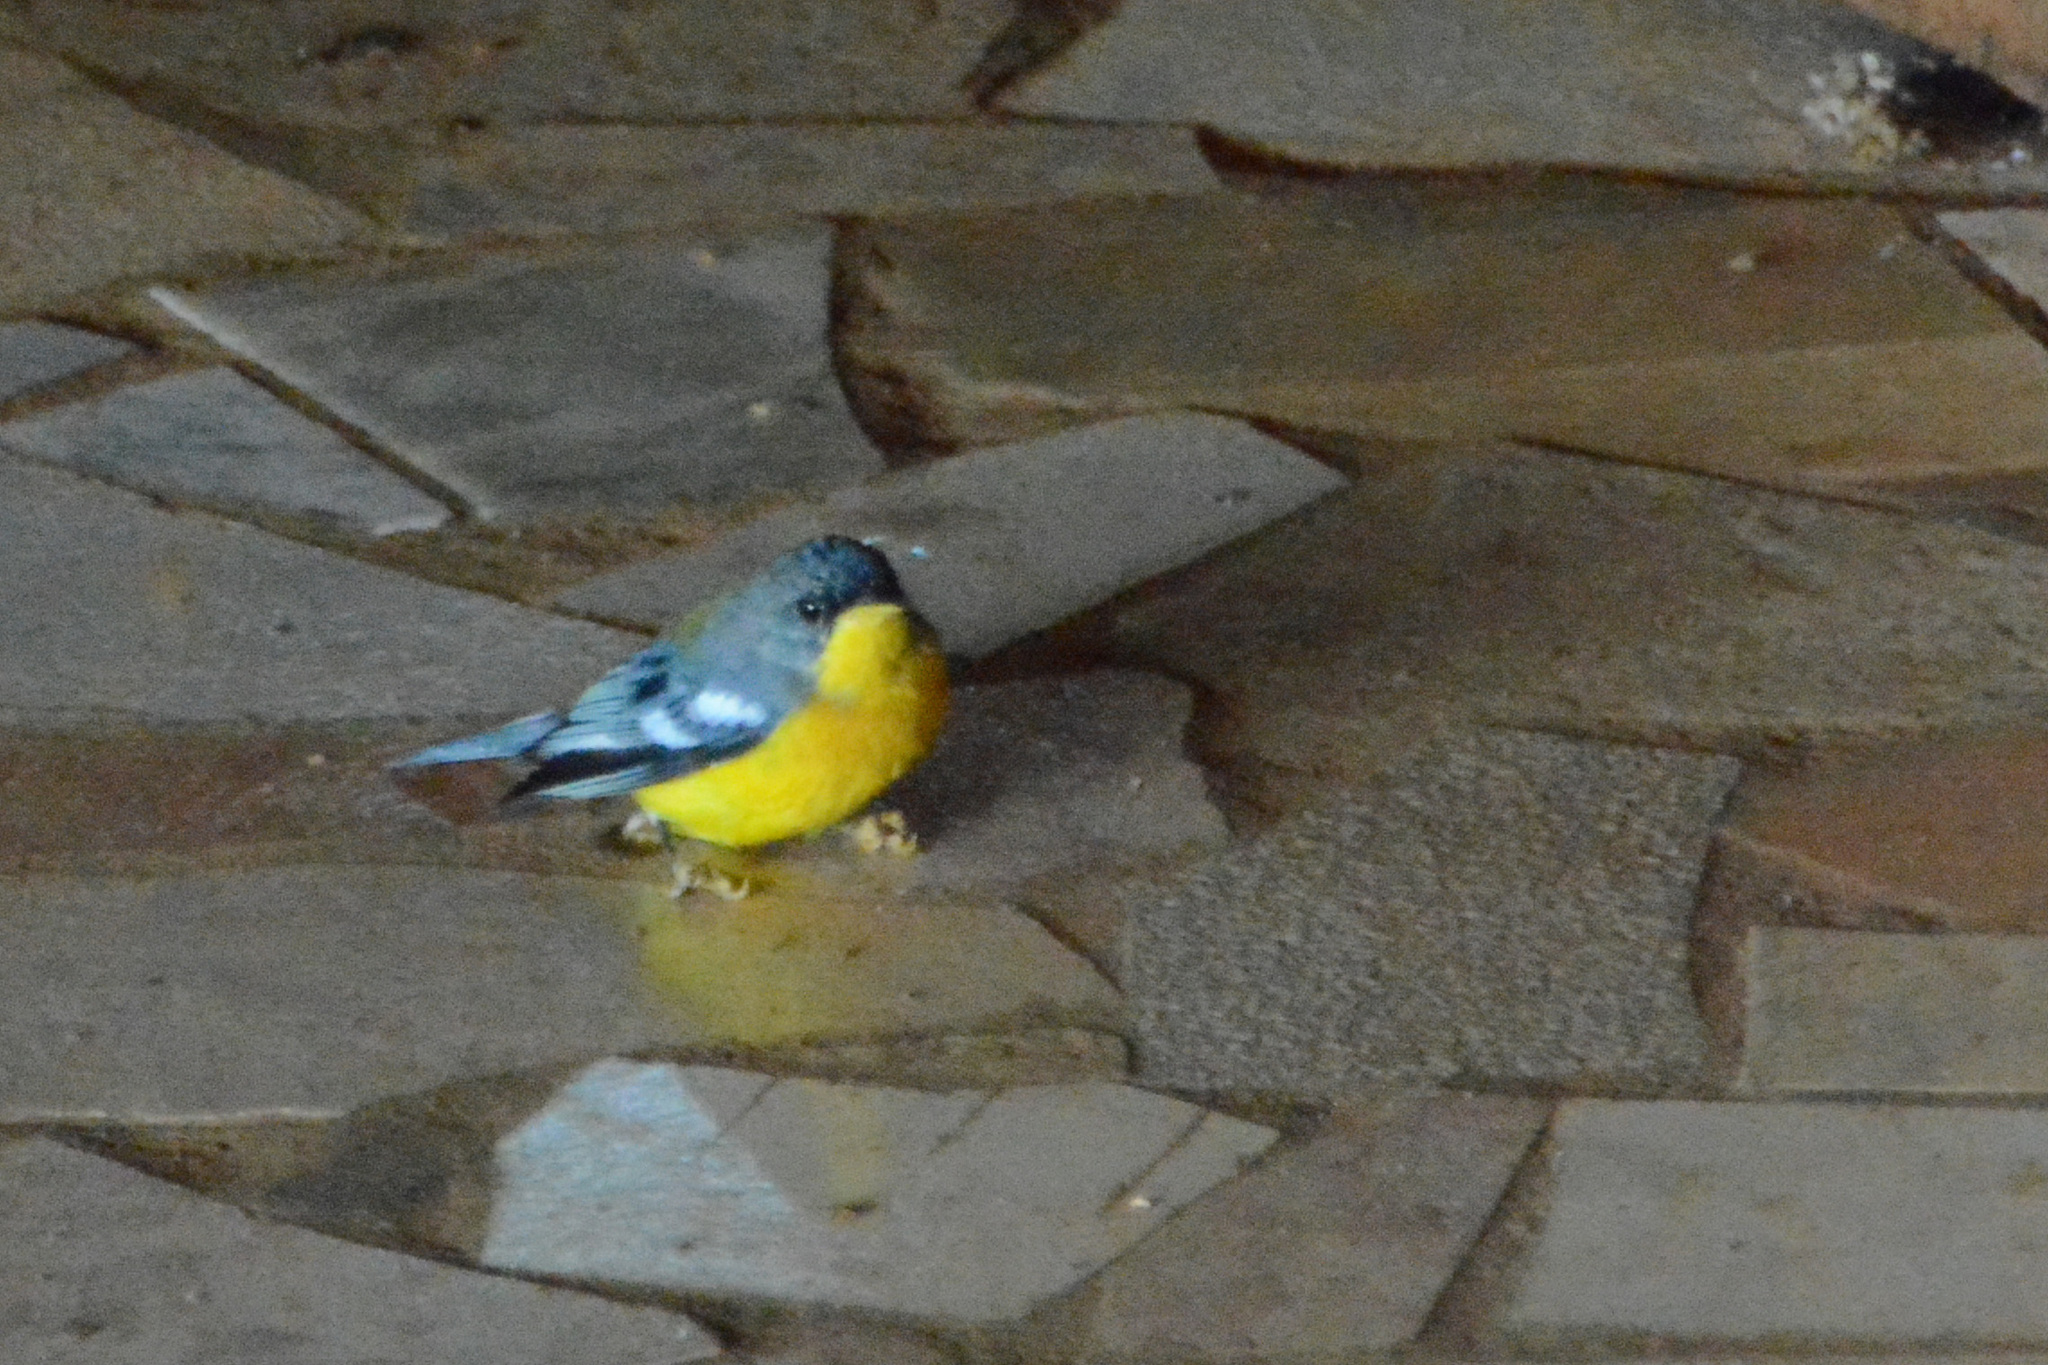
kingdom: Animalia
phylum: Chordata
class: Aves
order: Passeriformes
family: Parulidae
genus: Setophaga
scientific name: Setophaga pitiayumi
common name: Tropical parula
